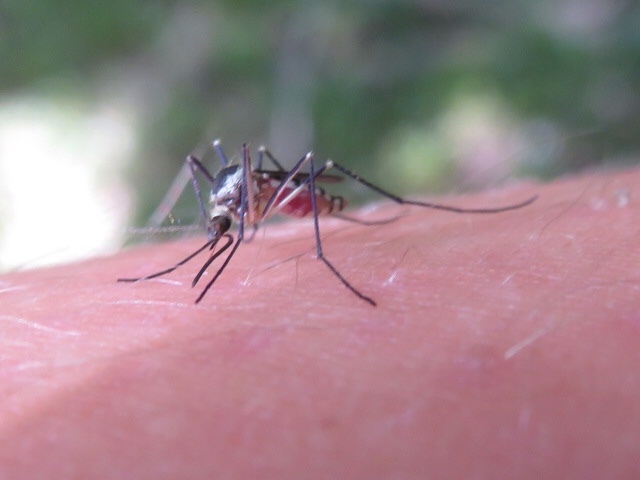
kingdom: Animalia
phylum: Arthropoda
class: Insecta
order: Diptera
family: Culicidae
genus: Aedes
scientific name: Aedes triseriatus
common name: Eastern treehole mosquito
